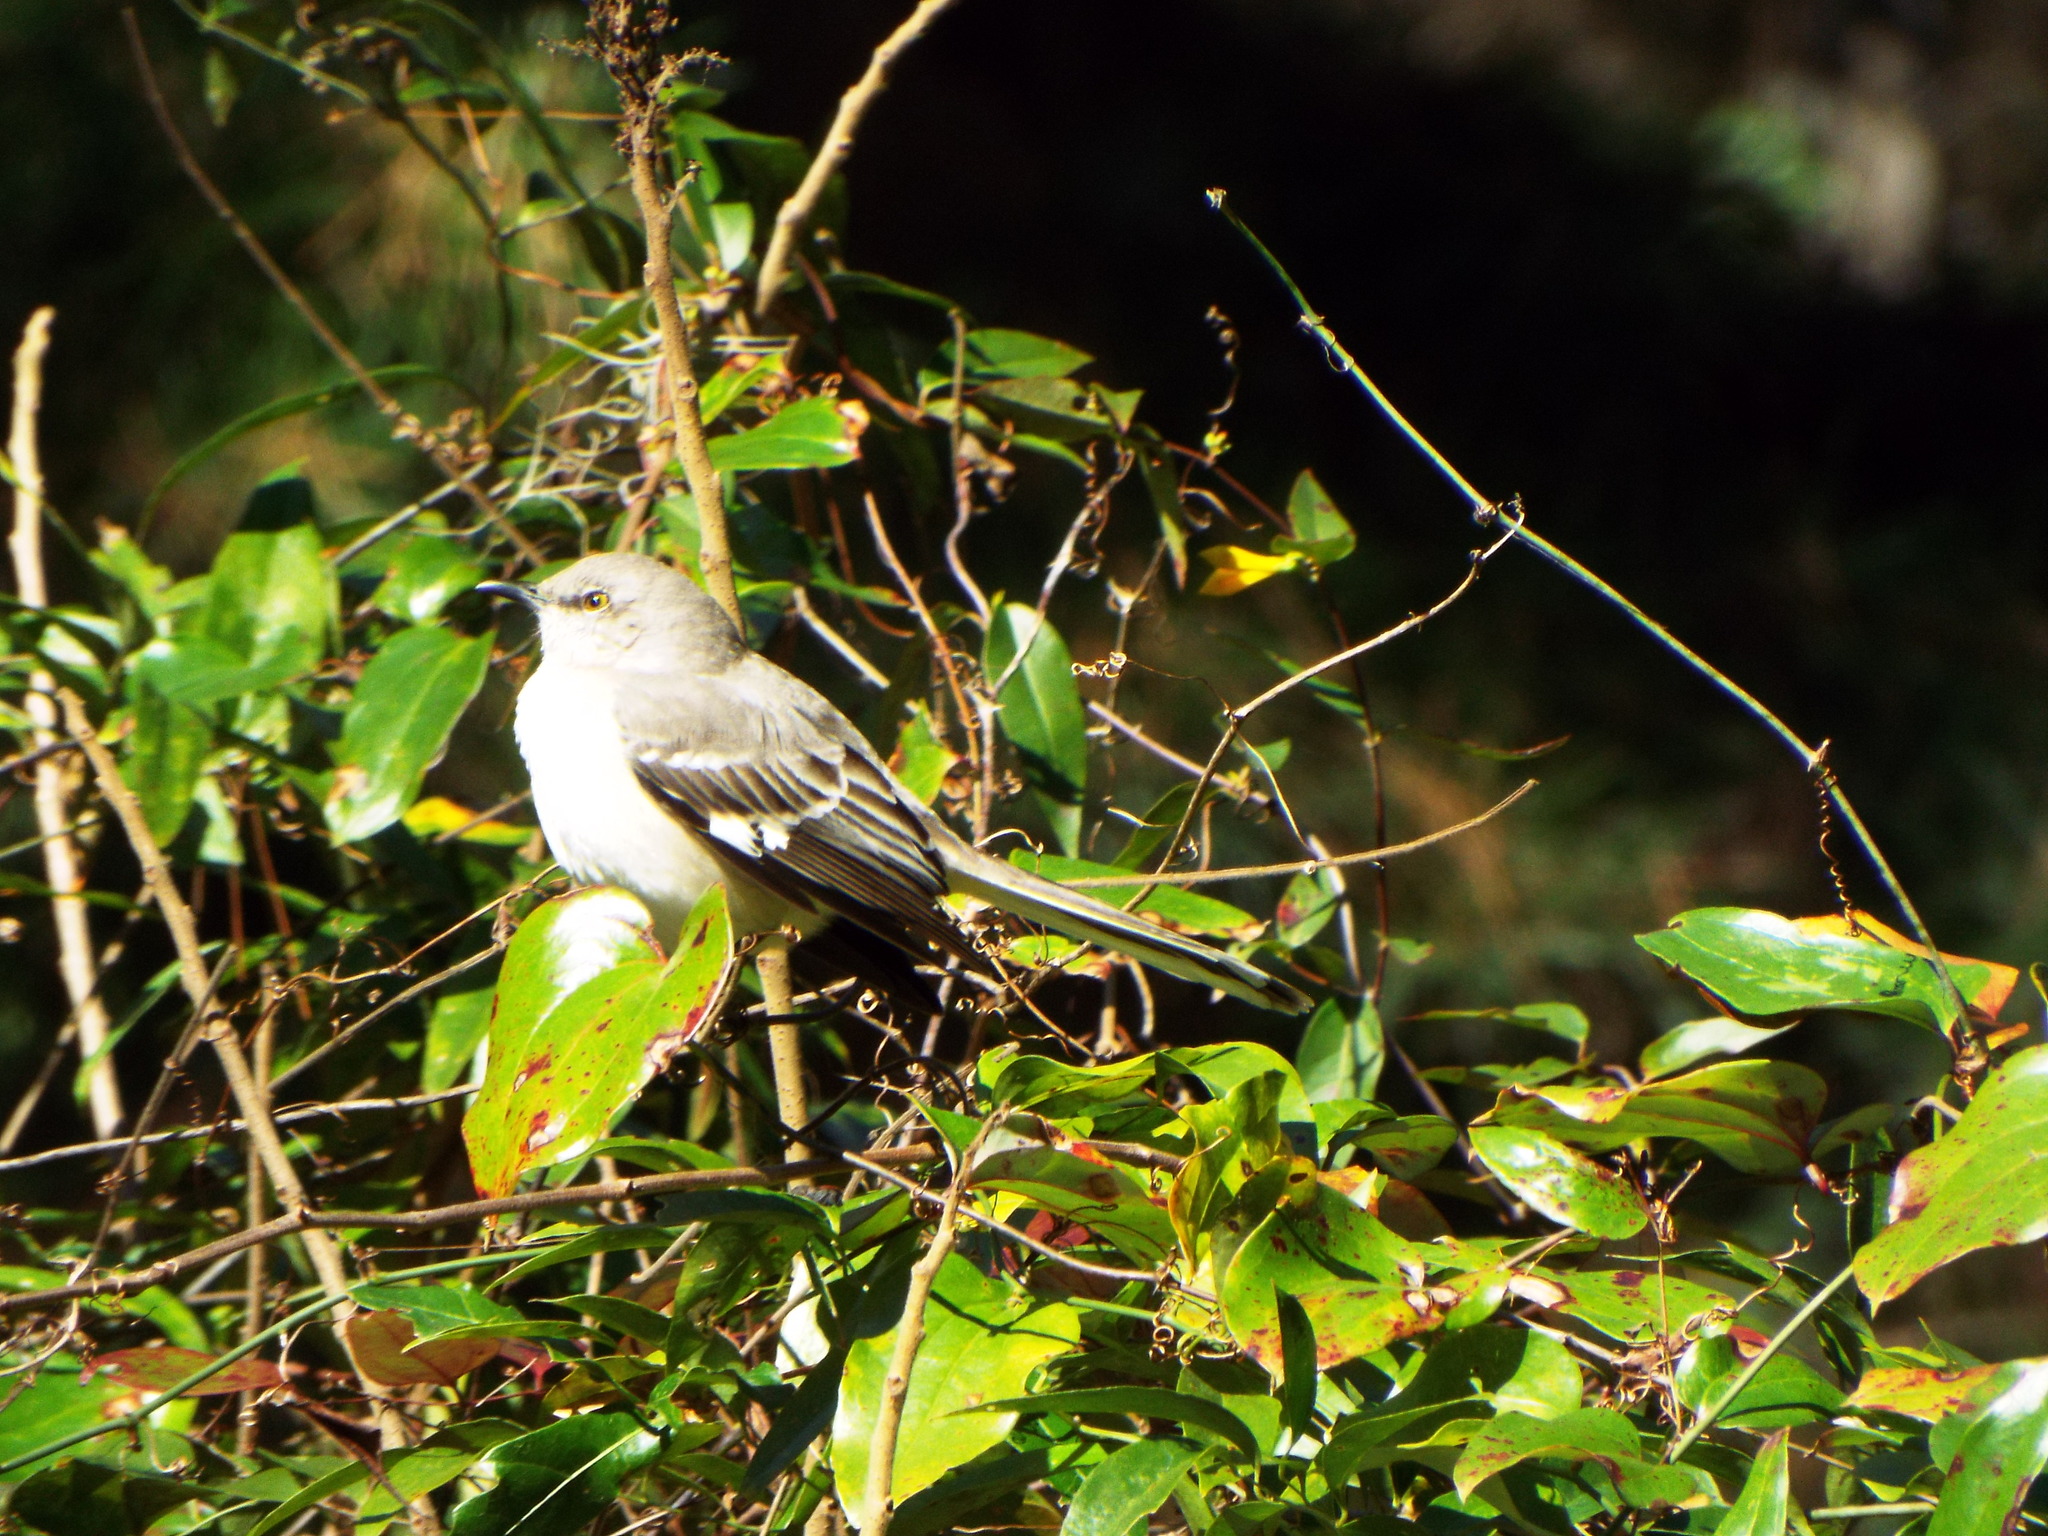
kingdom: Animalia
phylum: Chordata
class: Aves
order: Passeriformes
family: Mimidae
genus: Mimus
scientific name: Mimus polyglottos
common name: Northern mockingbird
